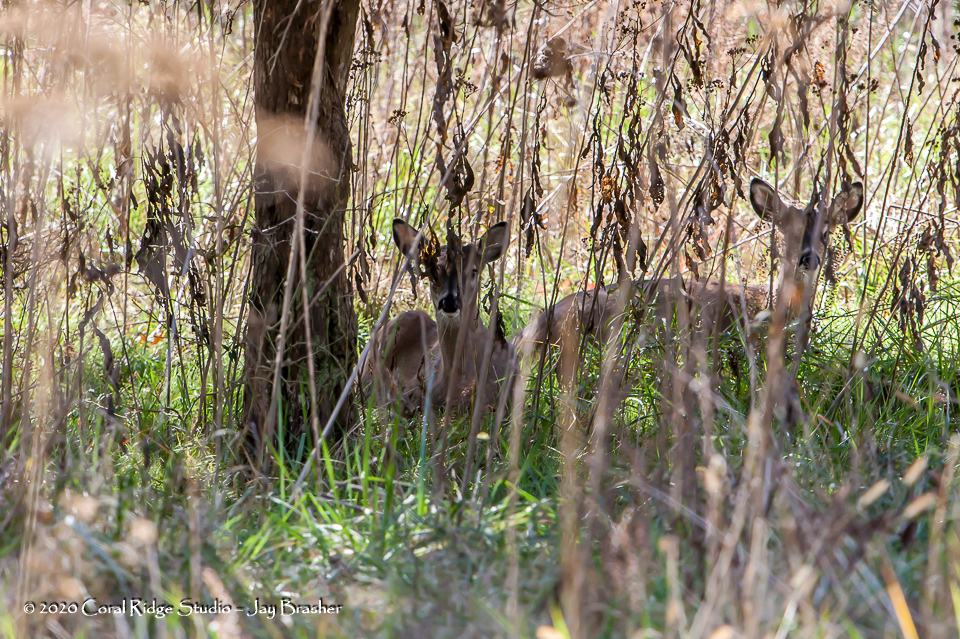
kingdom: Animalia
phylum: Chordata
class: Mammalia
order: Artiodactyla
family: Cervidae
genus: Odocoileus
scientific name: Odocoileus virginianus
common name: White-tailed deer
